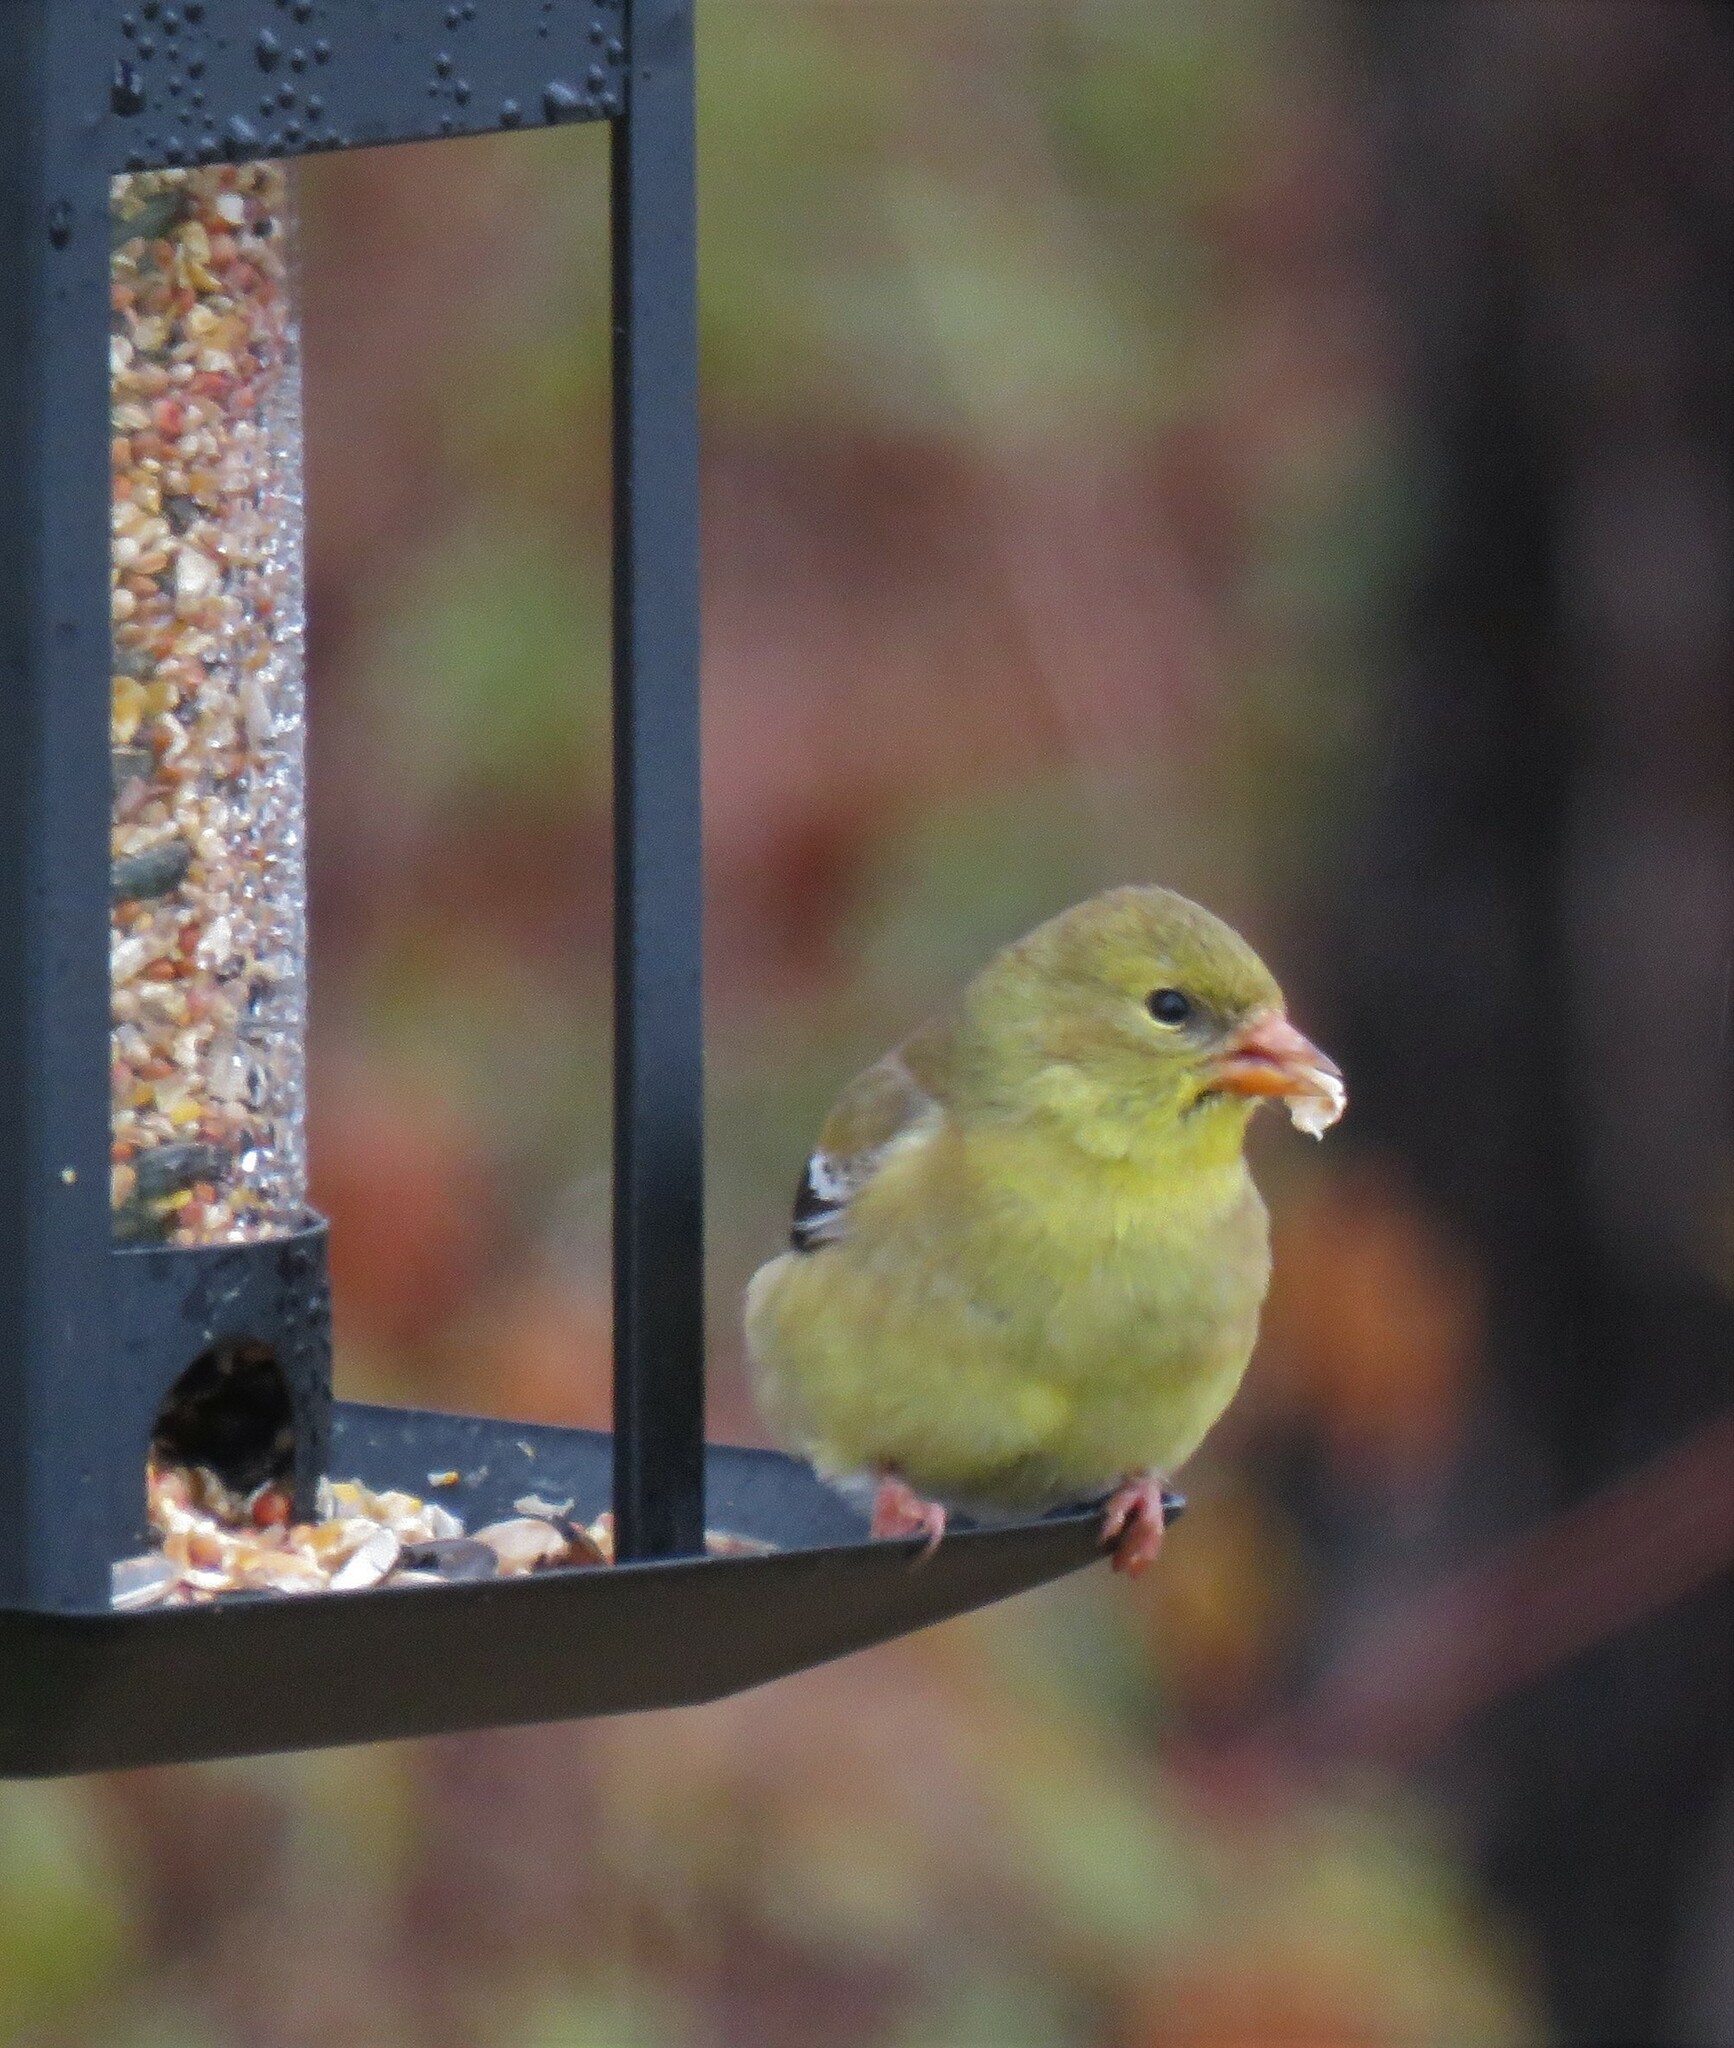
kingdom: Animalia
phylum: Chordata
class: Aves
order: Passeriformes
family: Fringillidae
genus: Spinus
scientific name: Spinus tristis
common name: American goldfinch
